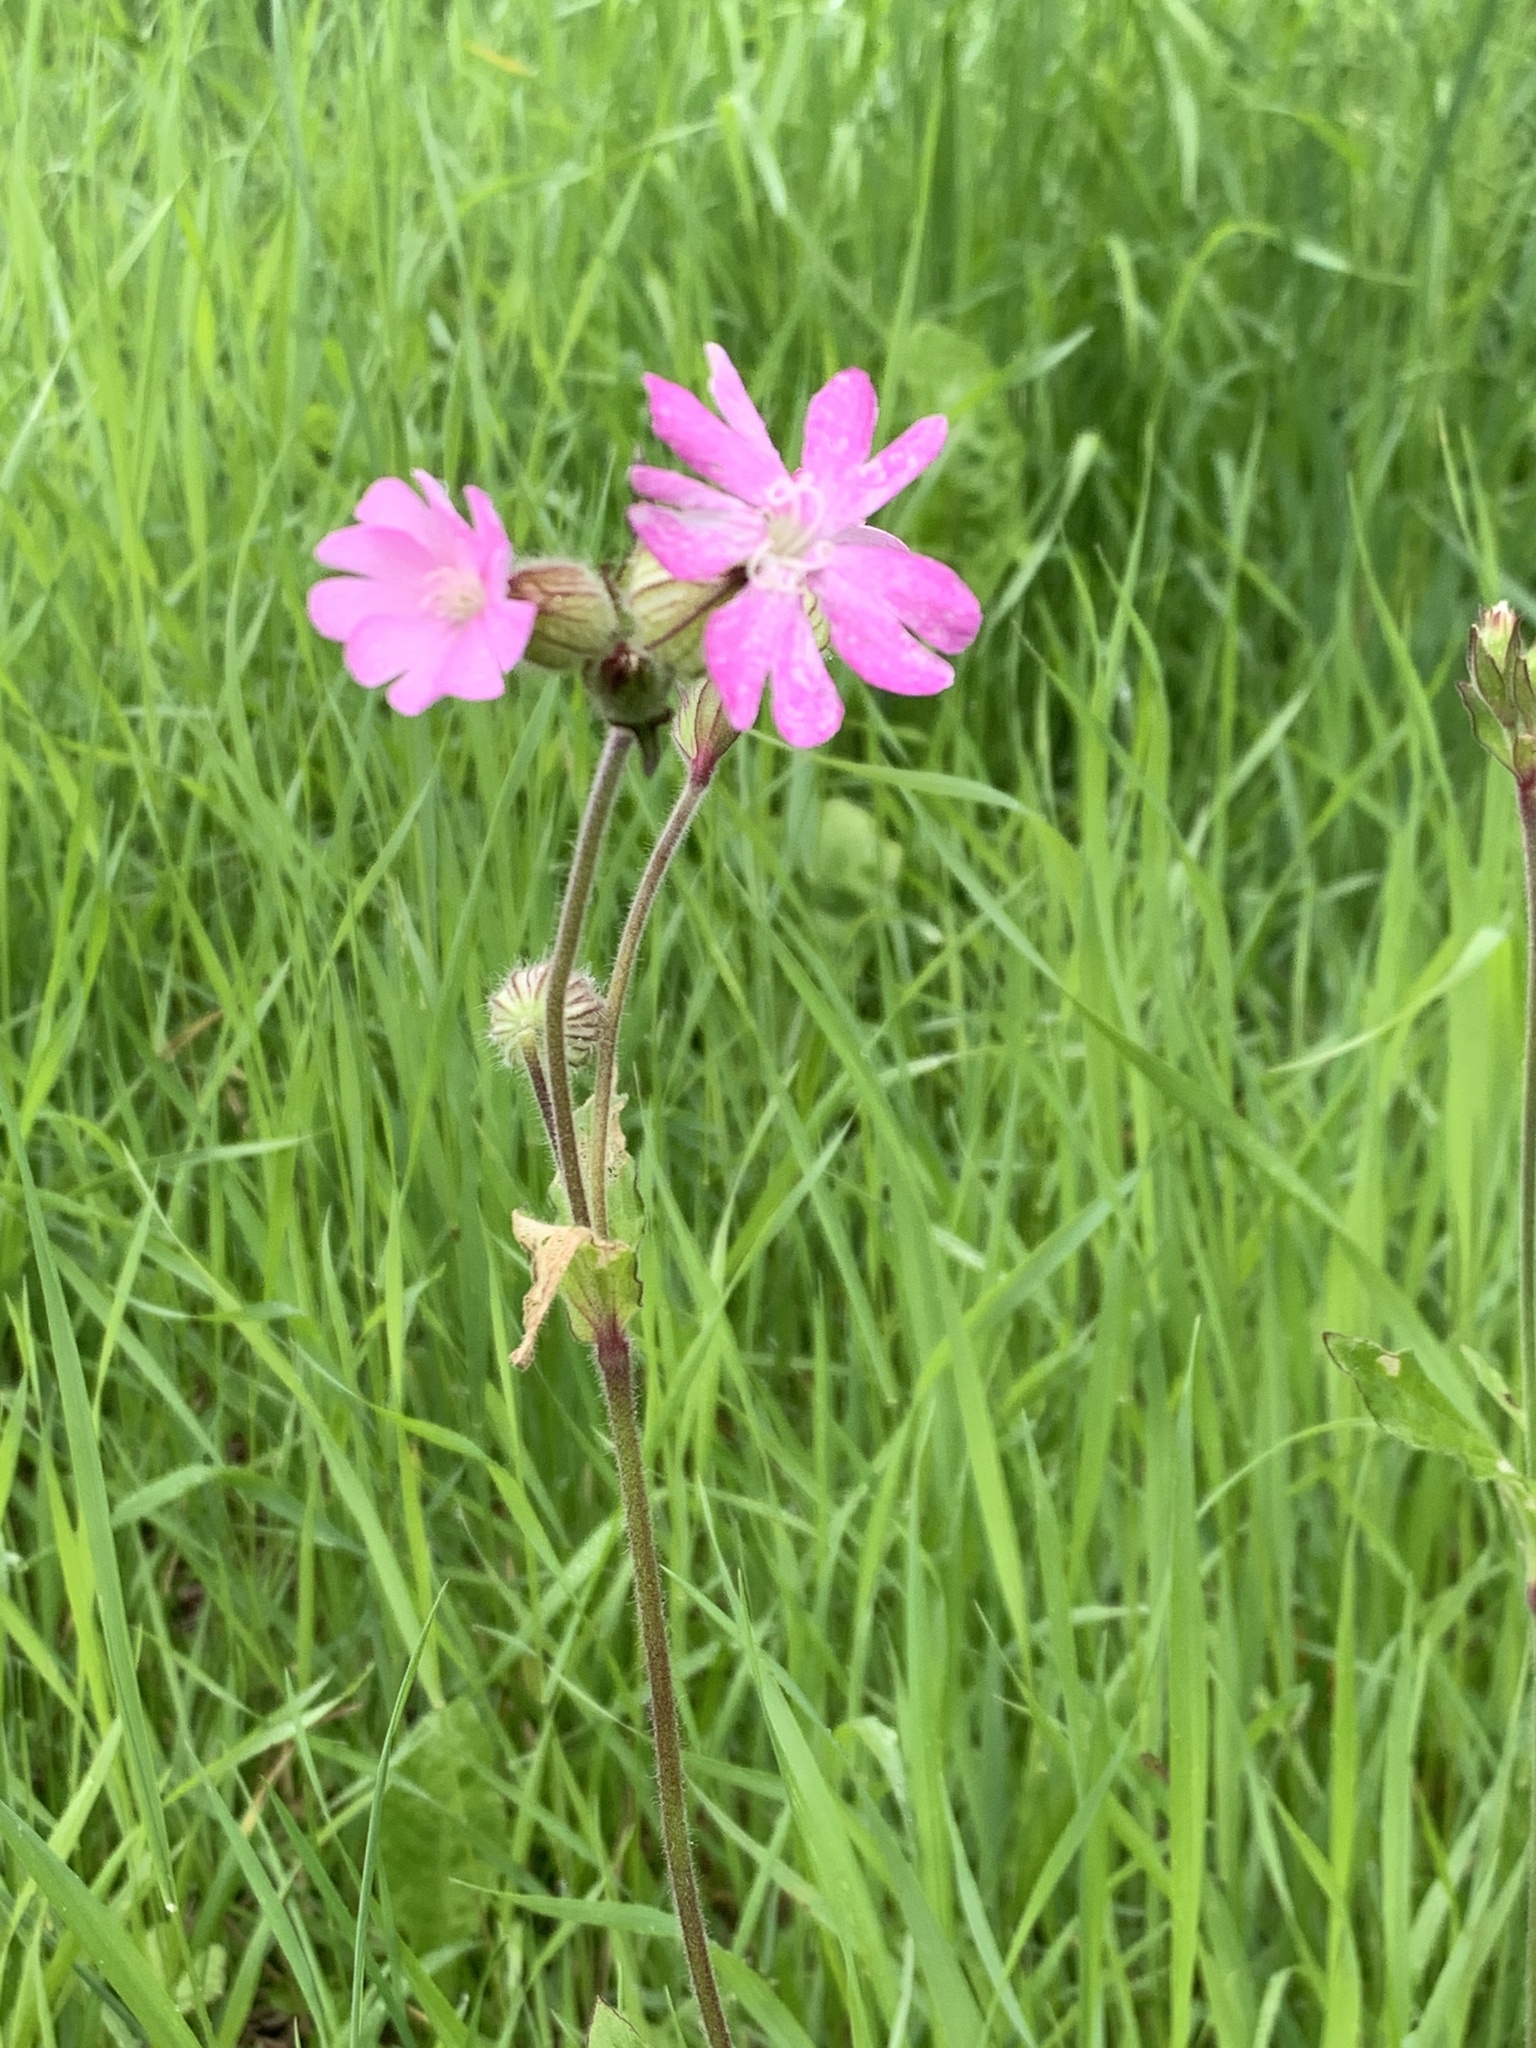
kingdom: Plantae
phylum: Tracheophyta
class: Magnoliopsida
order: Caryophyllales
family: Caryophyllaceae
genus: Silene
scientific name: Silene dioica
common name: Red campion
